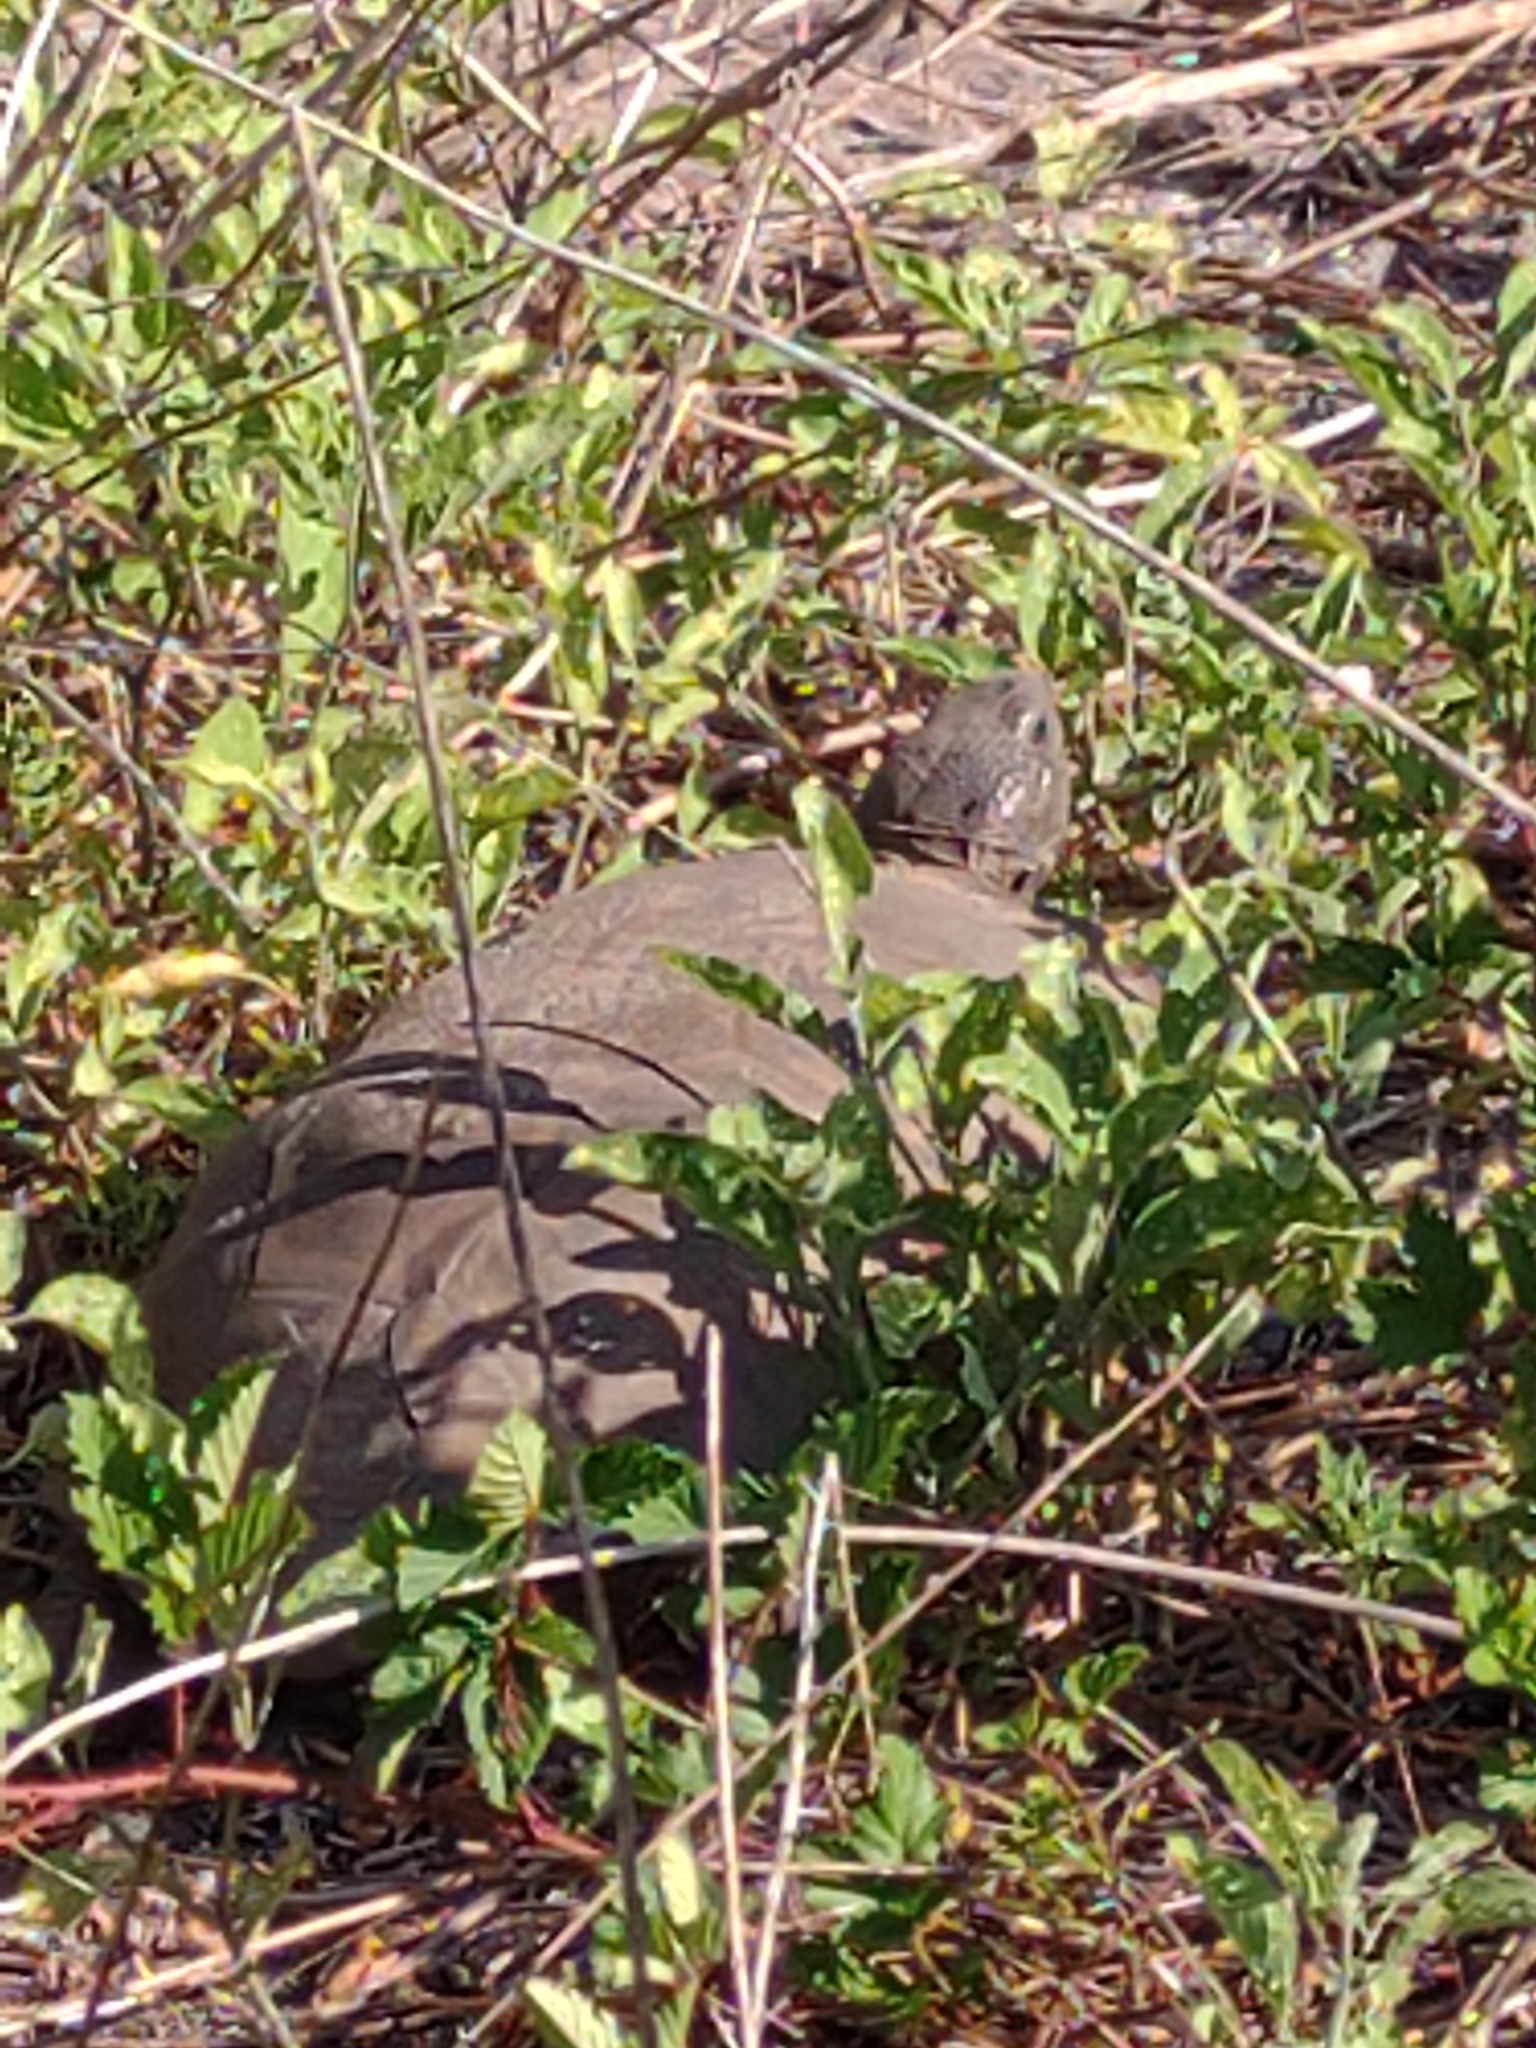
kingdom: Animalia
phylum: Chordata
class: Testudines
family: Testudinidae
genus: Gopherus
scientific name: Gopherus polyphemus
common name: Florida gopher tortoise
